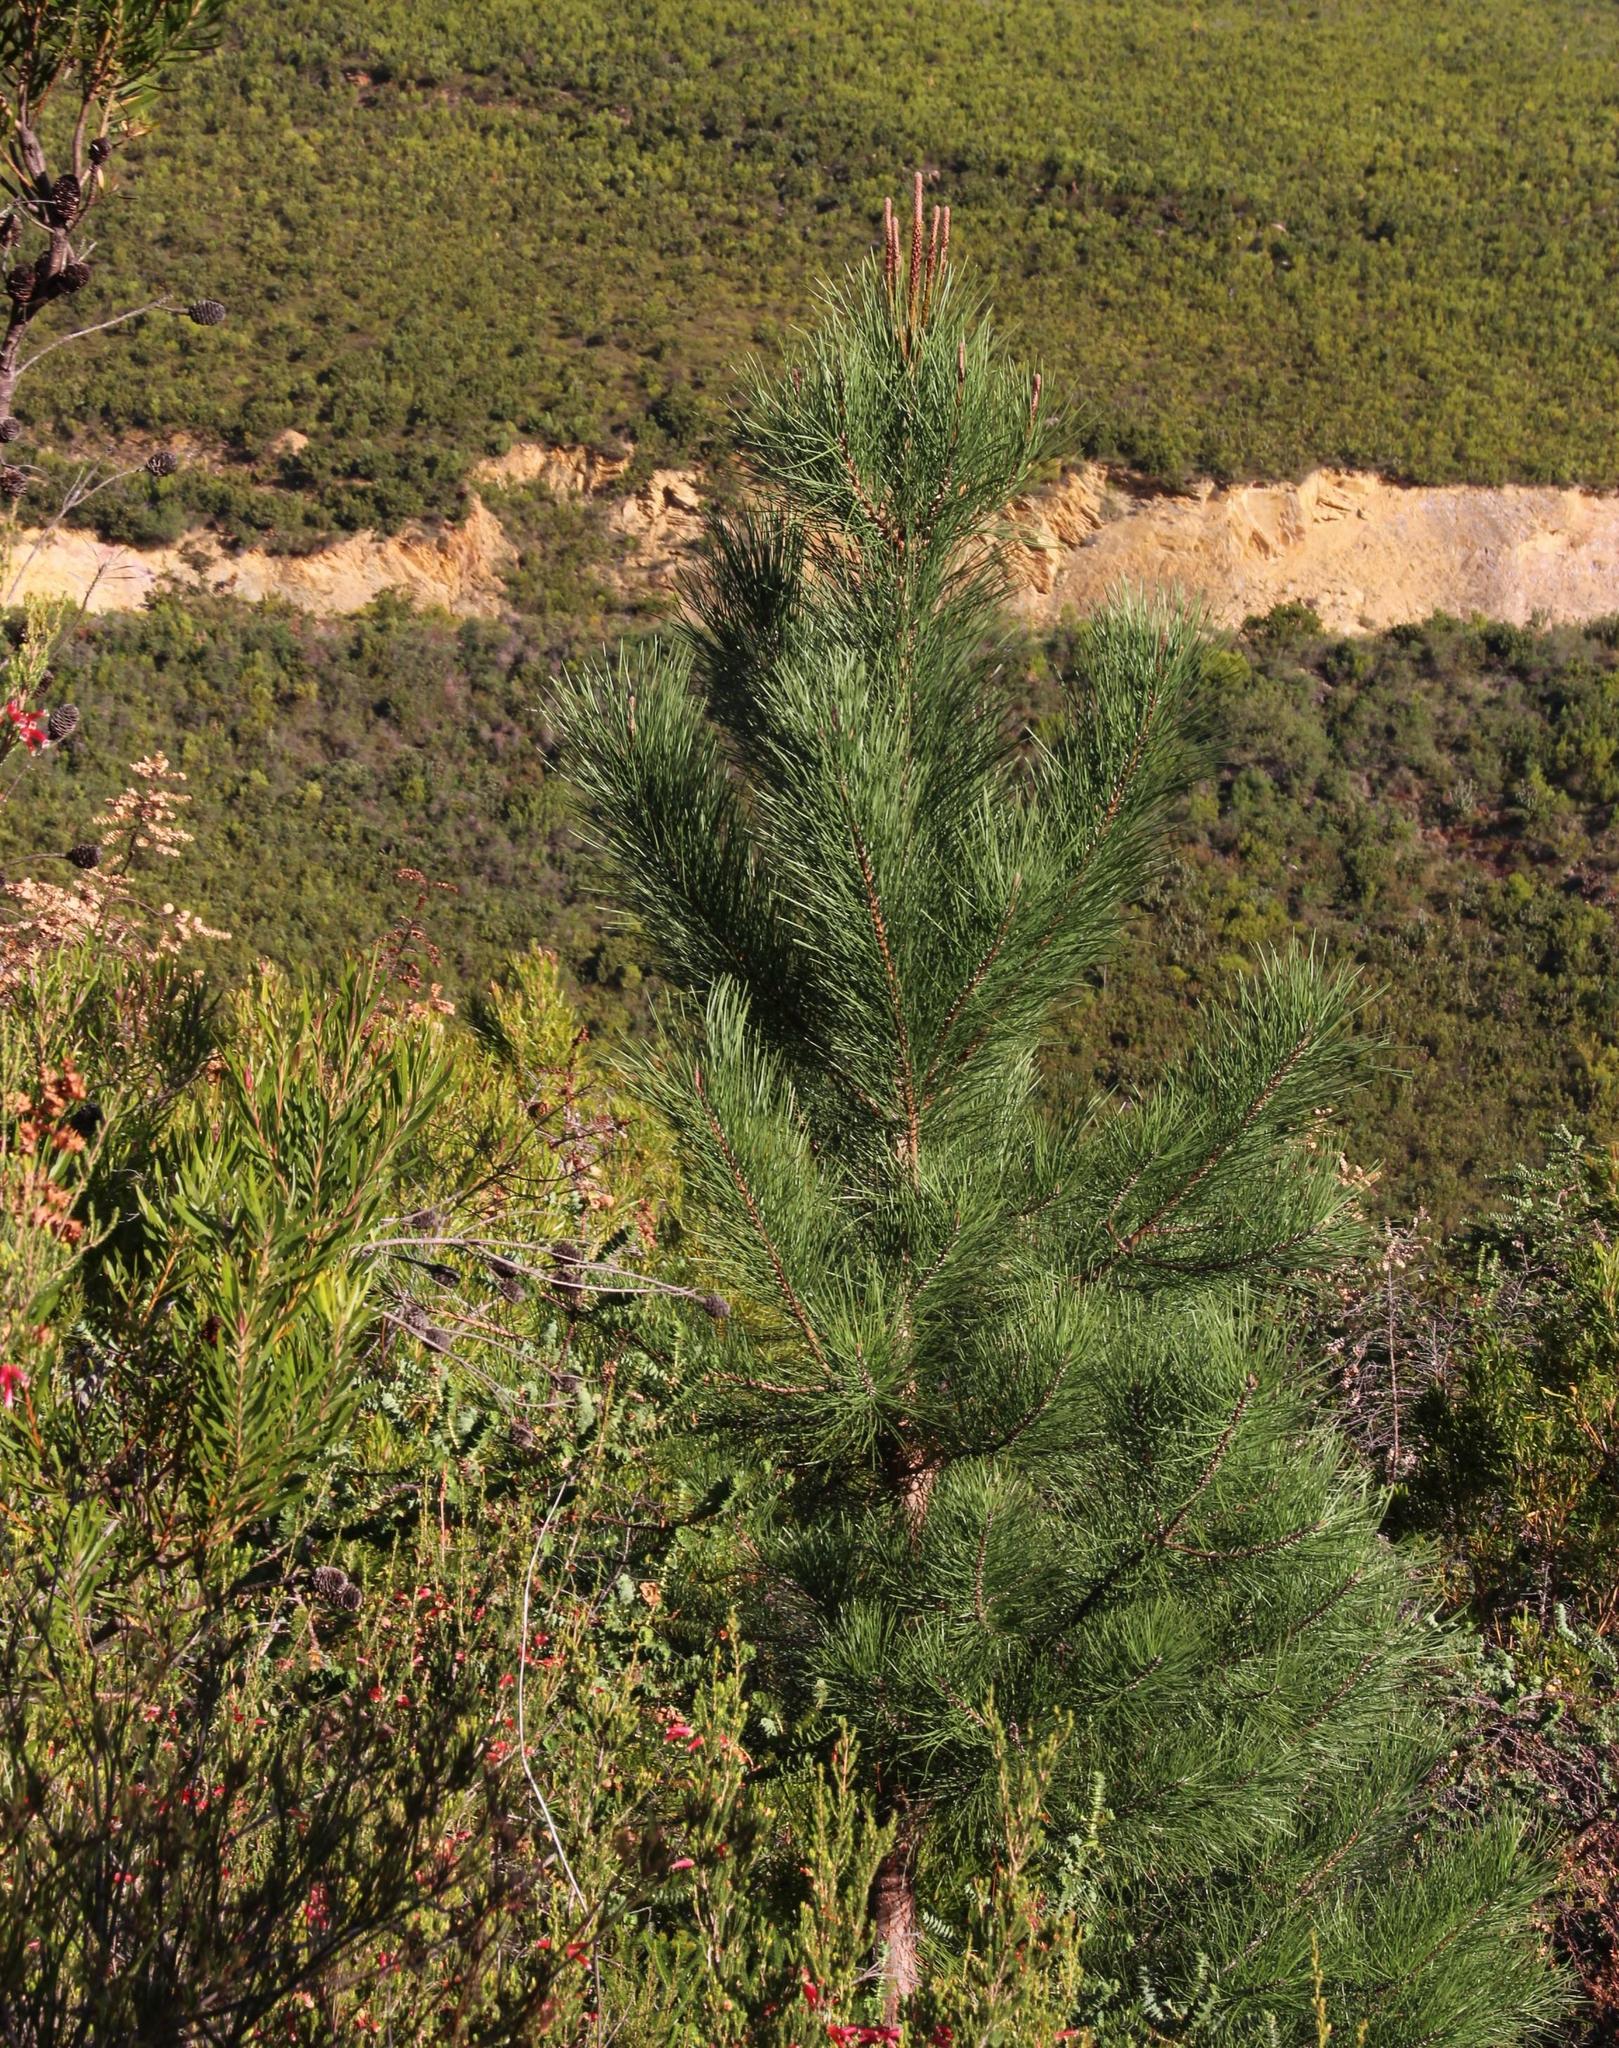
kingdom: Plantae
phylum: Tracheophyta
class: Pinopsida
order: Pinales
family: Pinaceae
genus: Pinus
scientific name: Pinus pinaster
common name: Maritime pine
